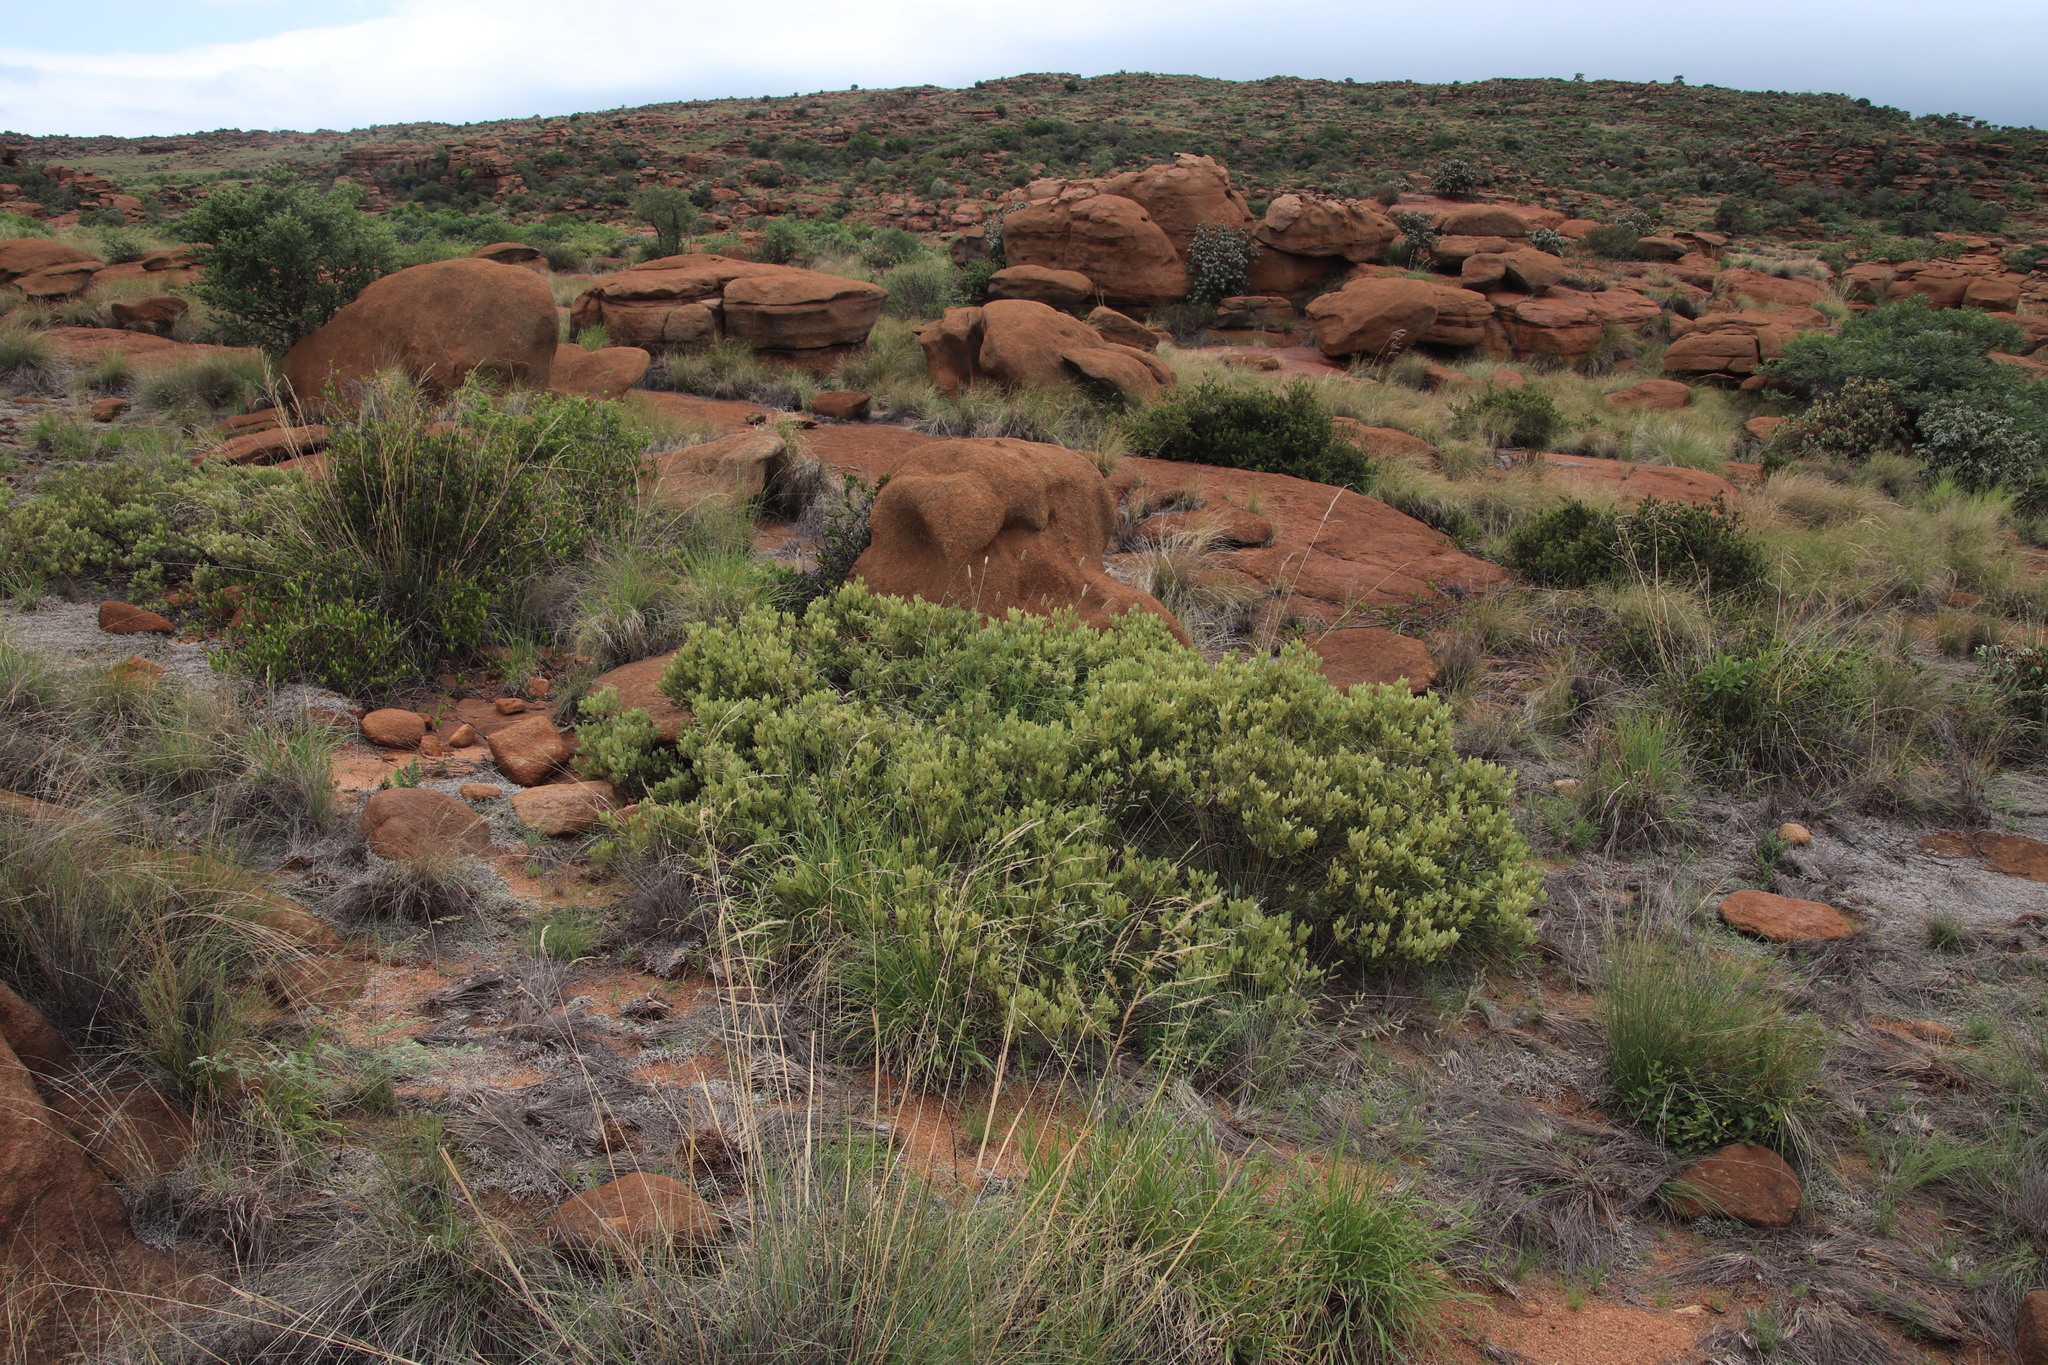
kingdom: Plantae
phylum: Tracheophyta
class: Magnoliopsida
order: Sapindales
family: Anacardiaceae
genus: Searsia
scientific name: Searsia magalismontana
